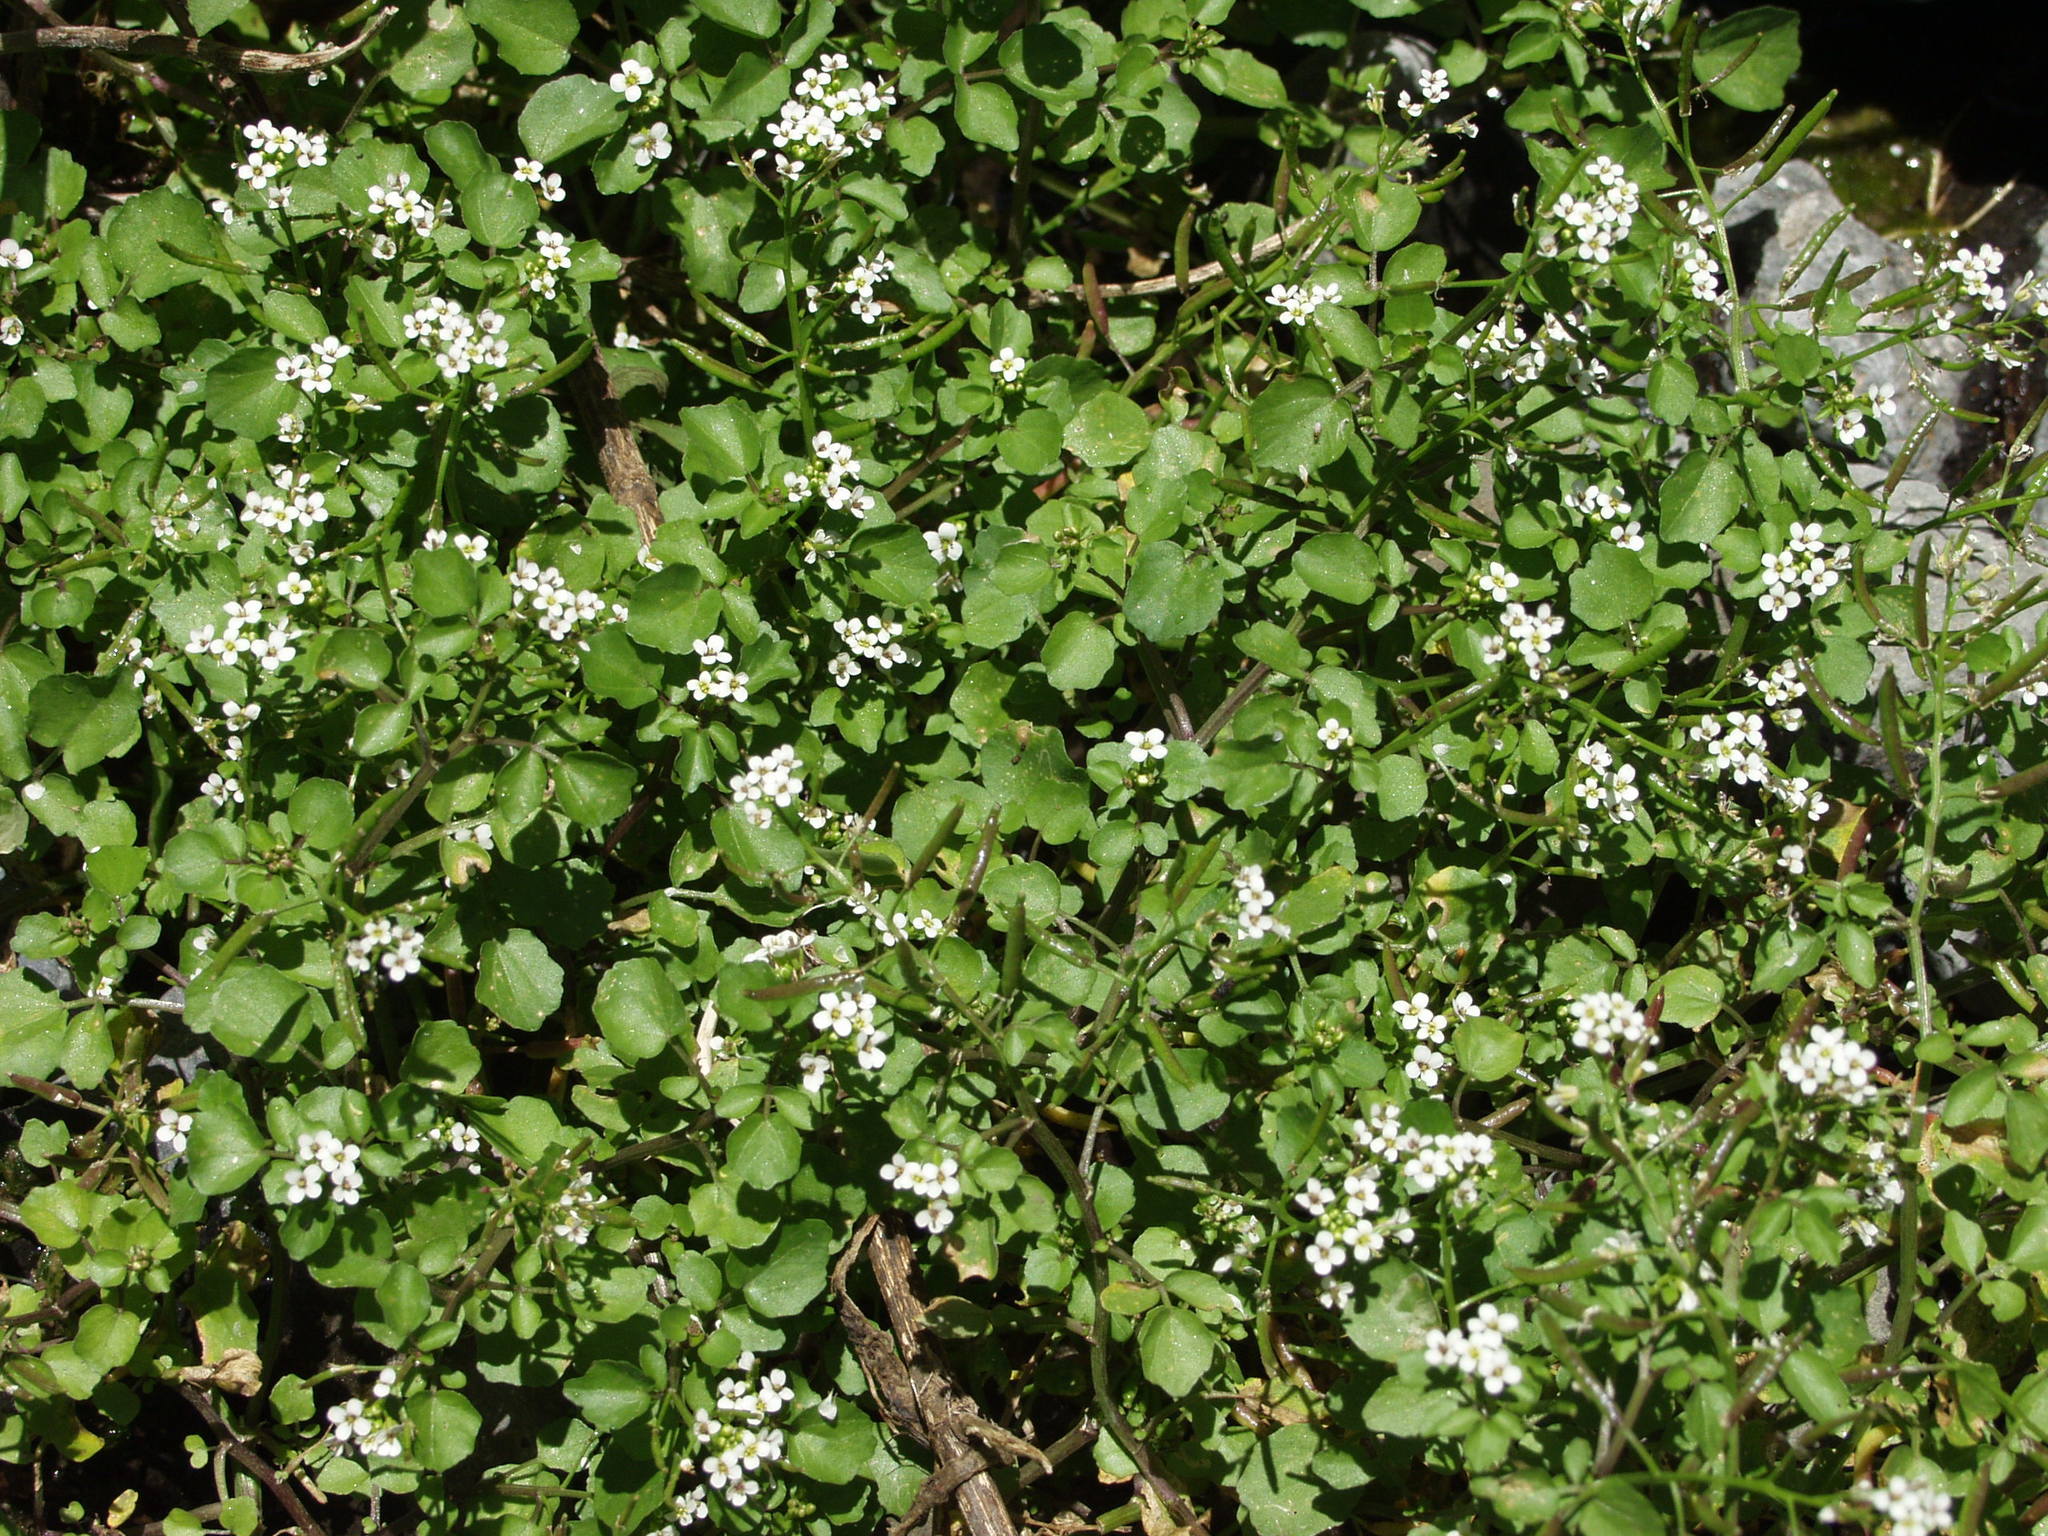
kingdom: Plantae
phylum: Tracheophyta
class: Magnoliopsida
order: Brassicales
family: Brassicaceae
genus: Nasturtium
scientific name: Nasturtium officinale
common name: Watercress
